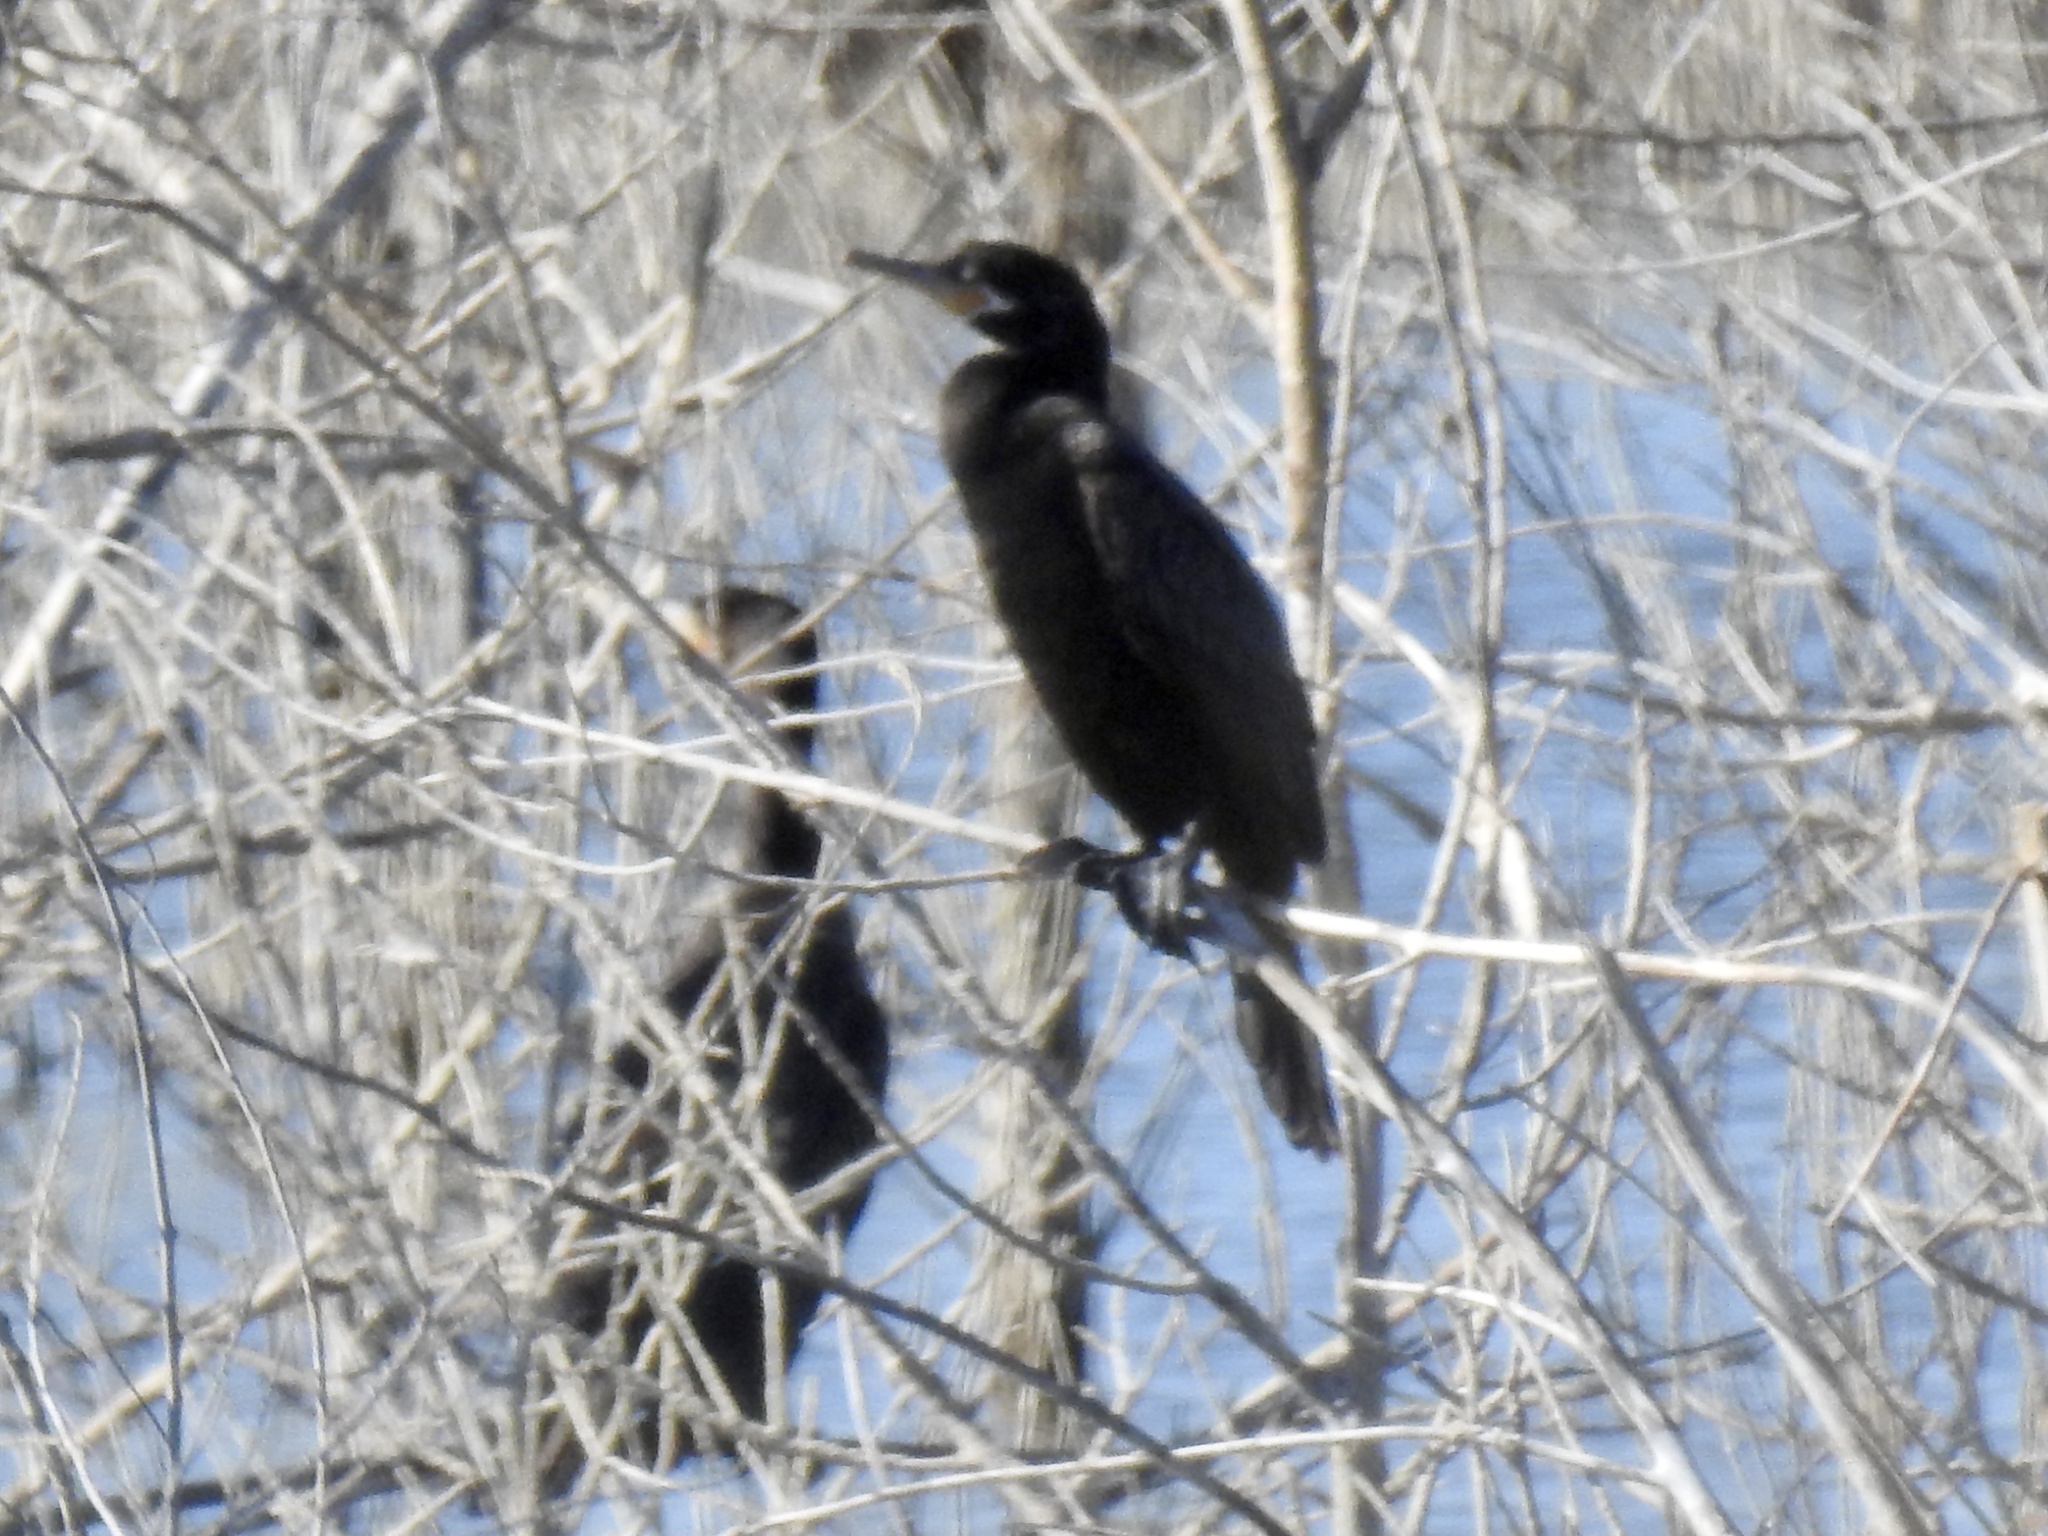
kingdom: Animalia
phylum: Chordata
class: Aves
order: Suliformes
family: Phalacrocoracidae
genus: Phalacrocorax
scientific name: Phalacrocorax brasilianus
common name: Neotropic cormorant
